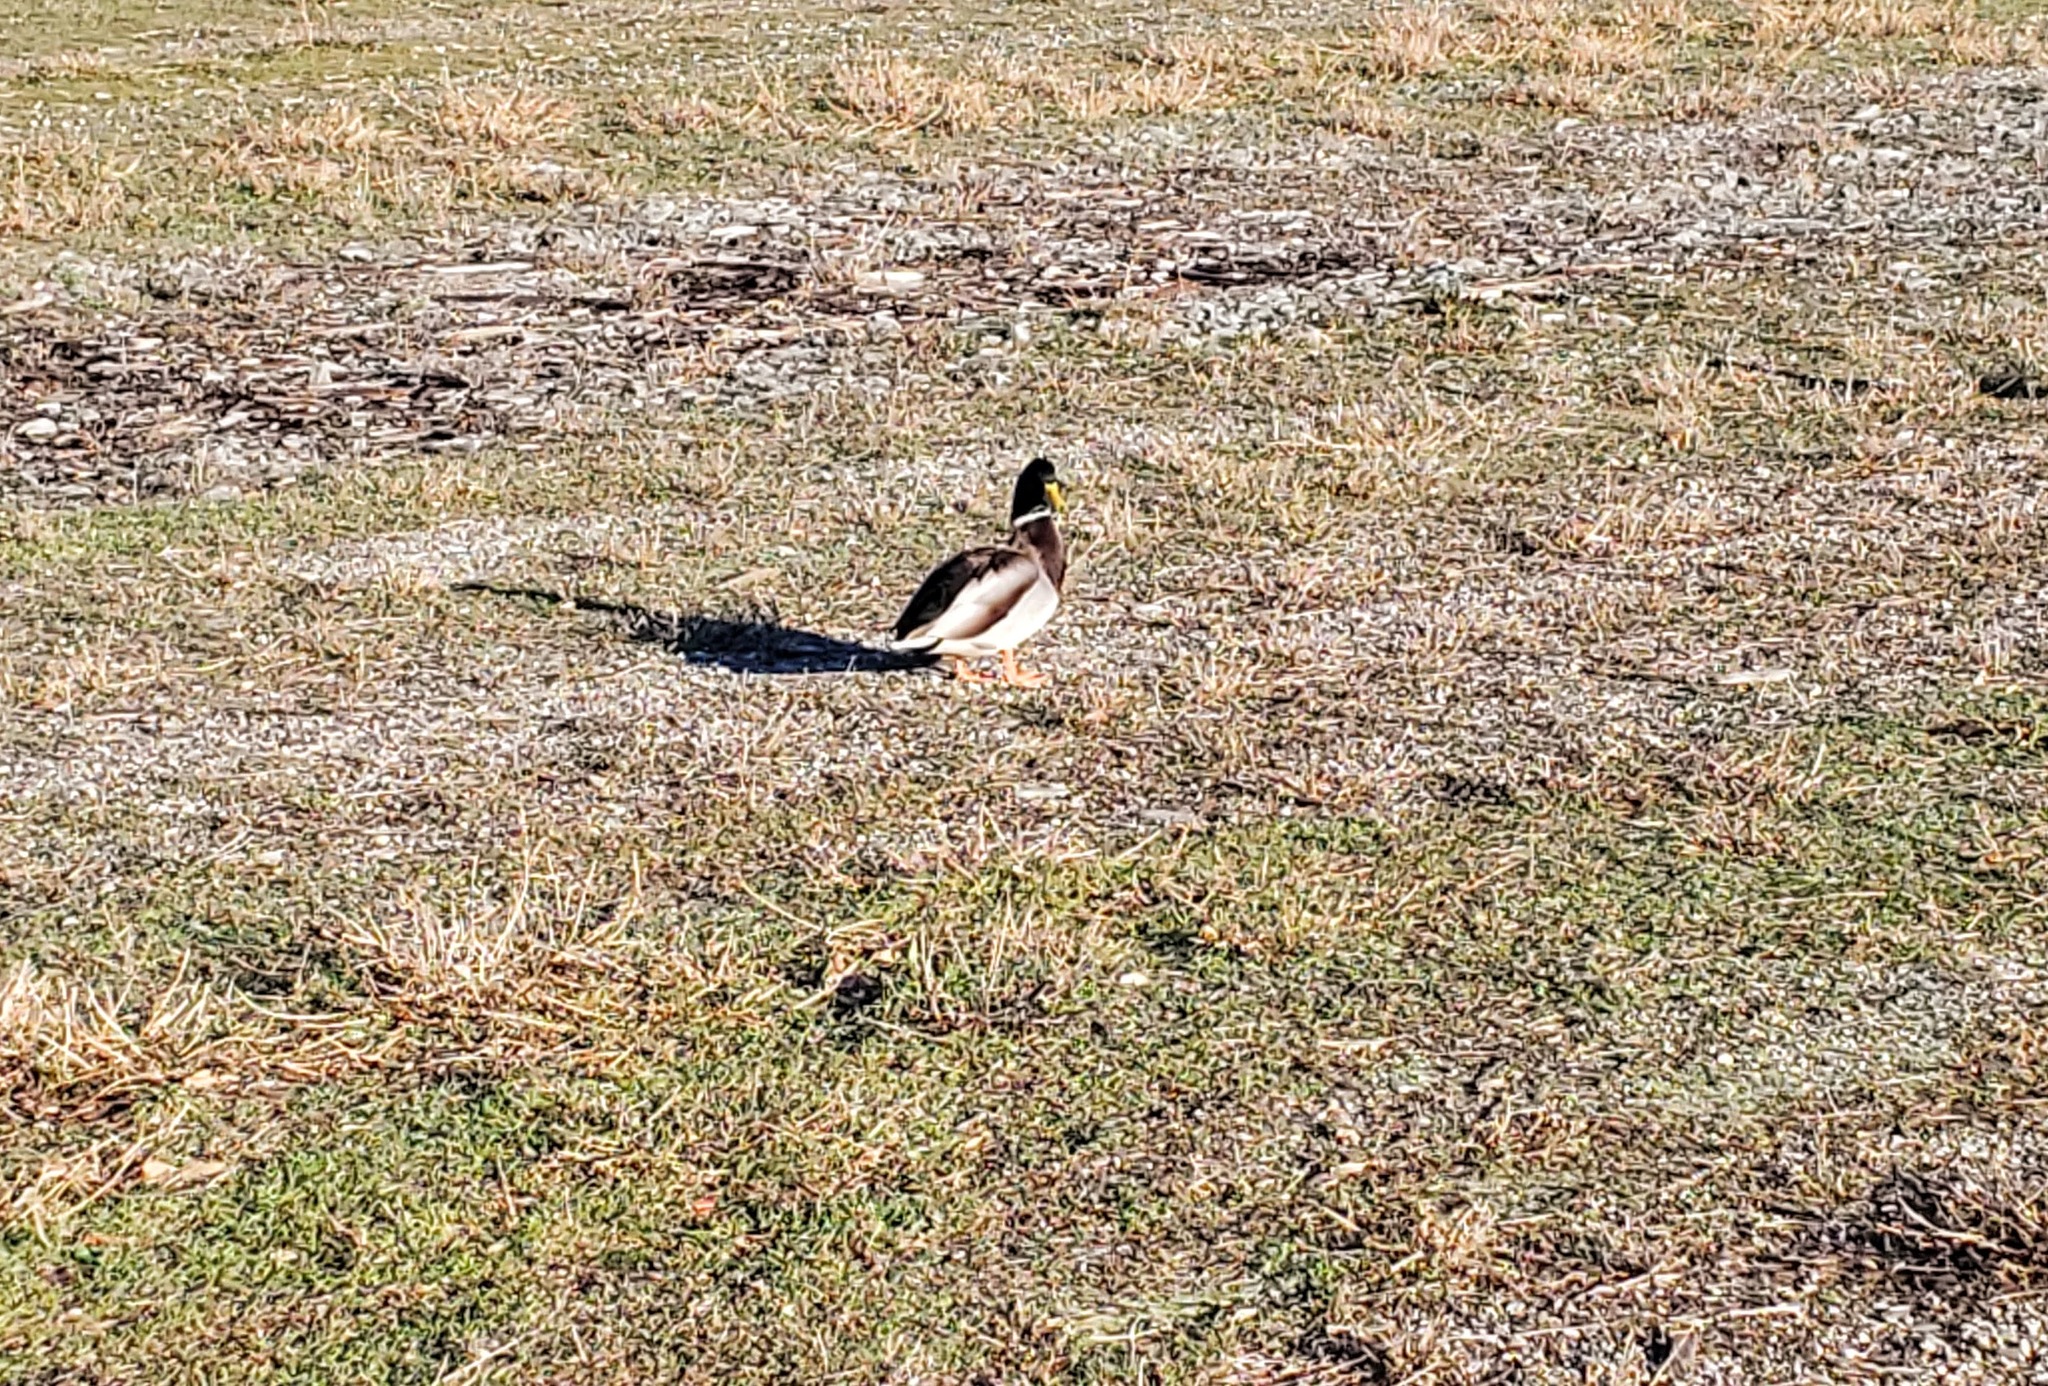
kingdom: Animalia
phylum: Chordata
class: Aves
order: Anseriformes
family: Anatidae
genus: Anas
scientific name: Anas platyrhynchos
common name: Mallard
